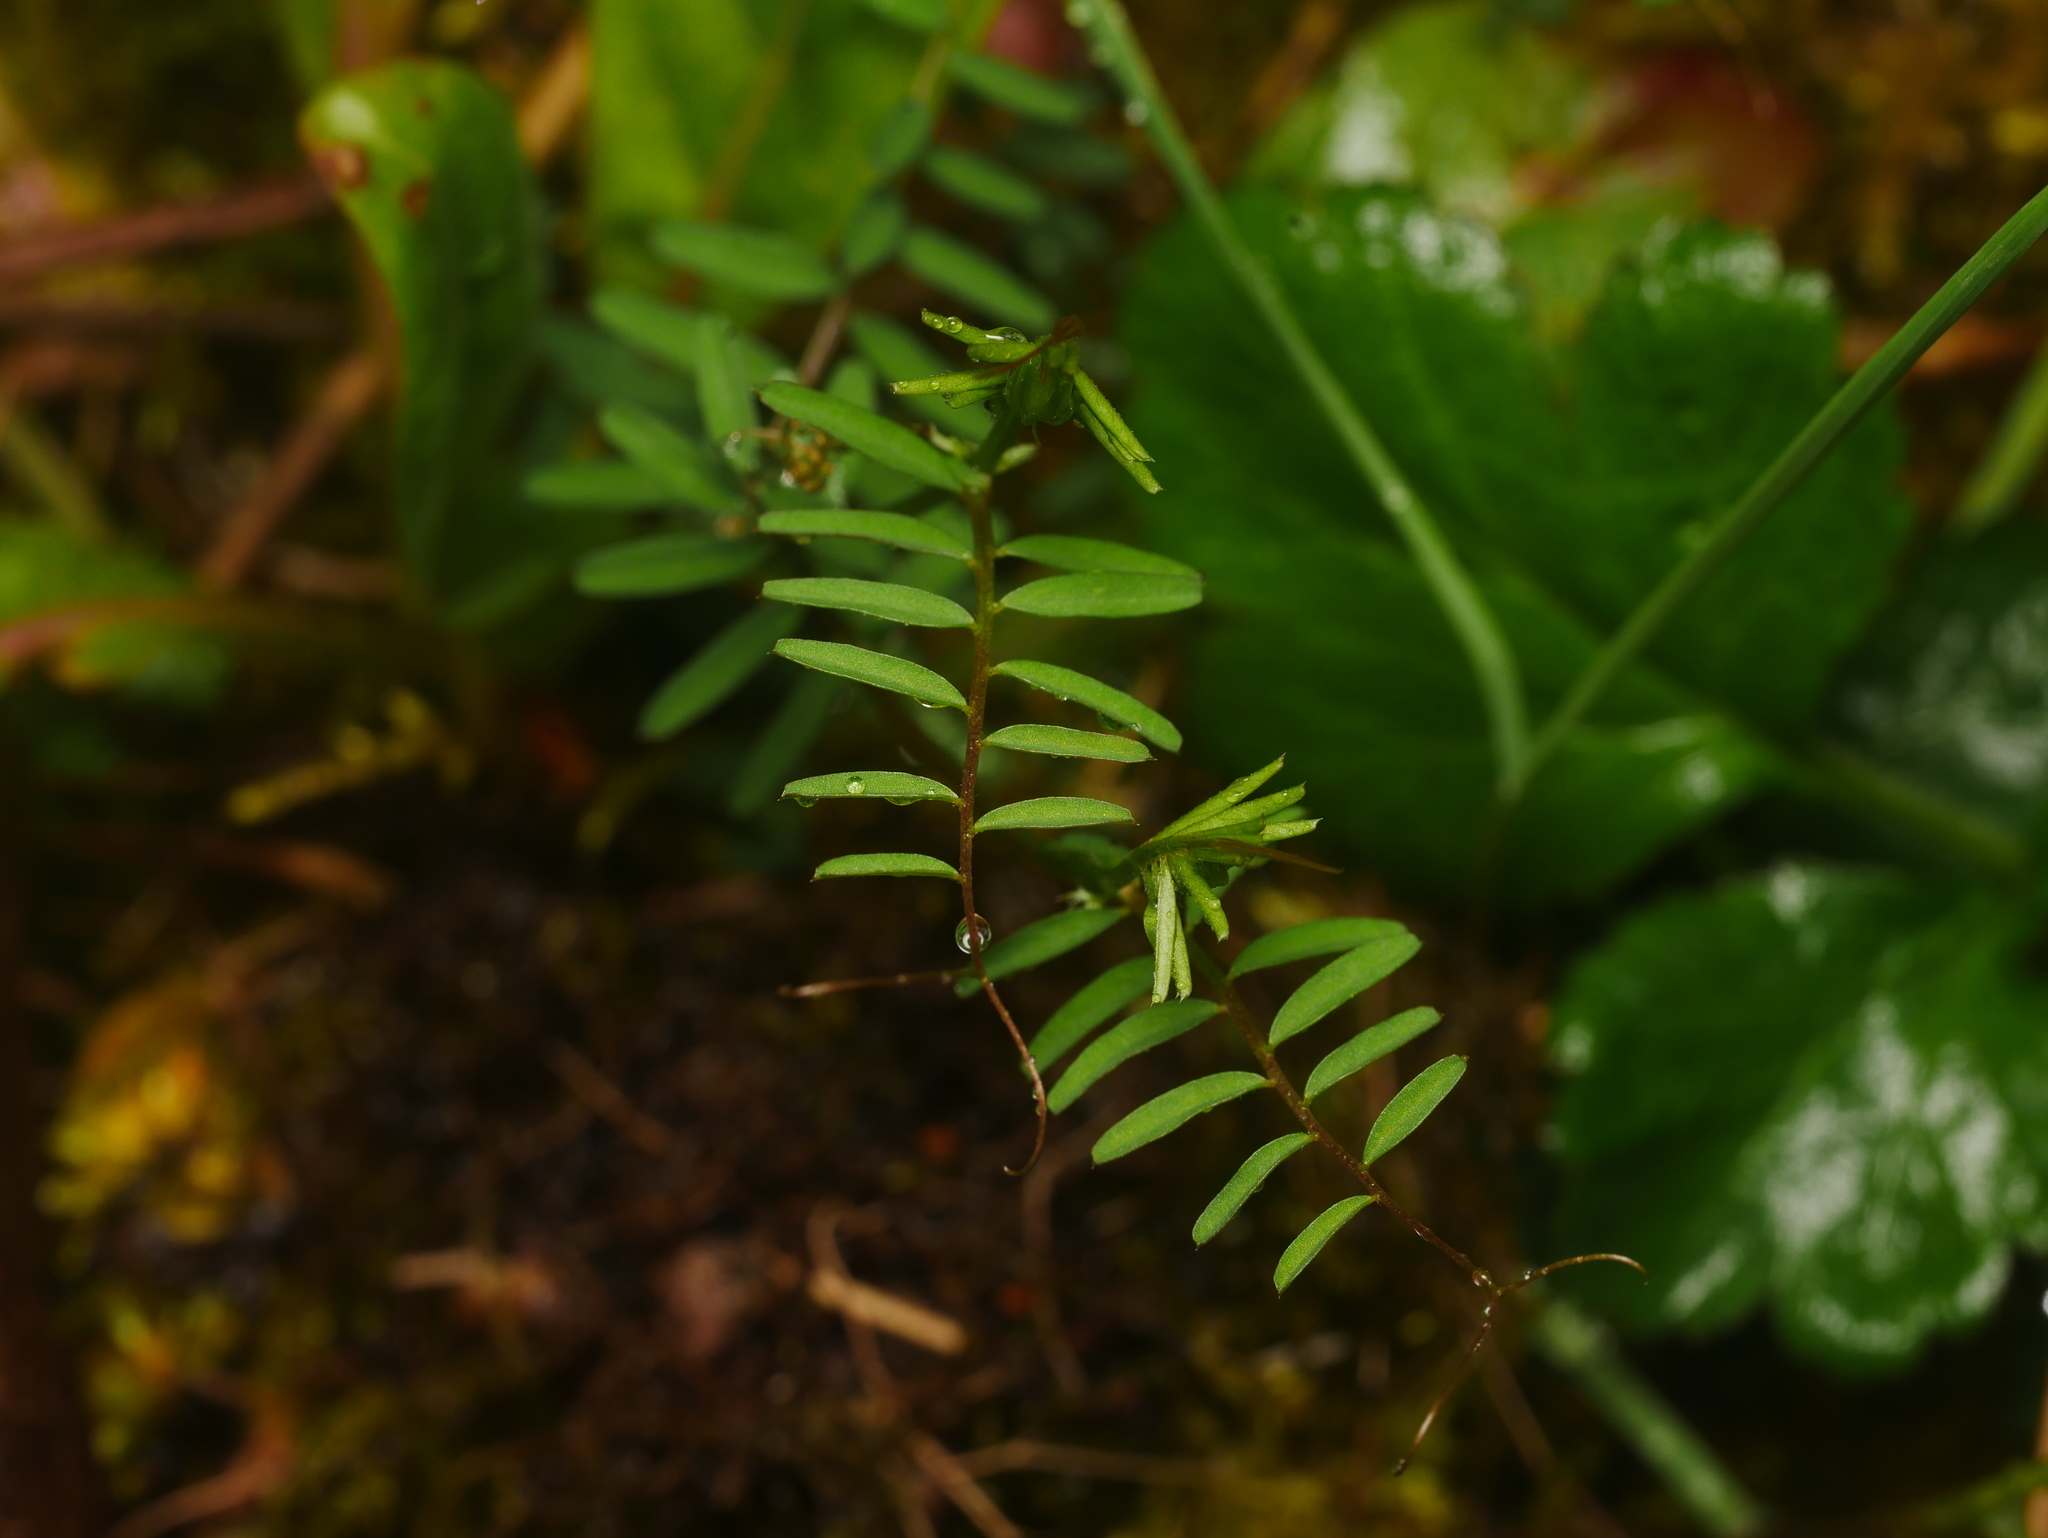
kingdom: Plantae
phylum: Tracheophyta
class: Magnoliopsida
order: Fabales
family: Fabaceae
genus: Vicia
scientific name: Vicia hirsuta
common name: Tiny vetch
